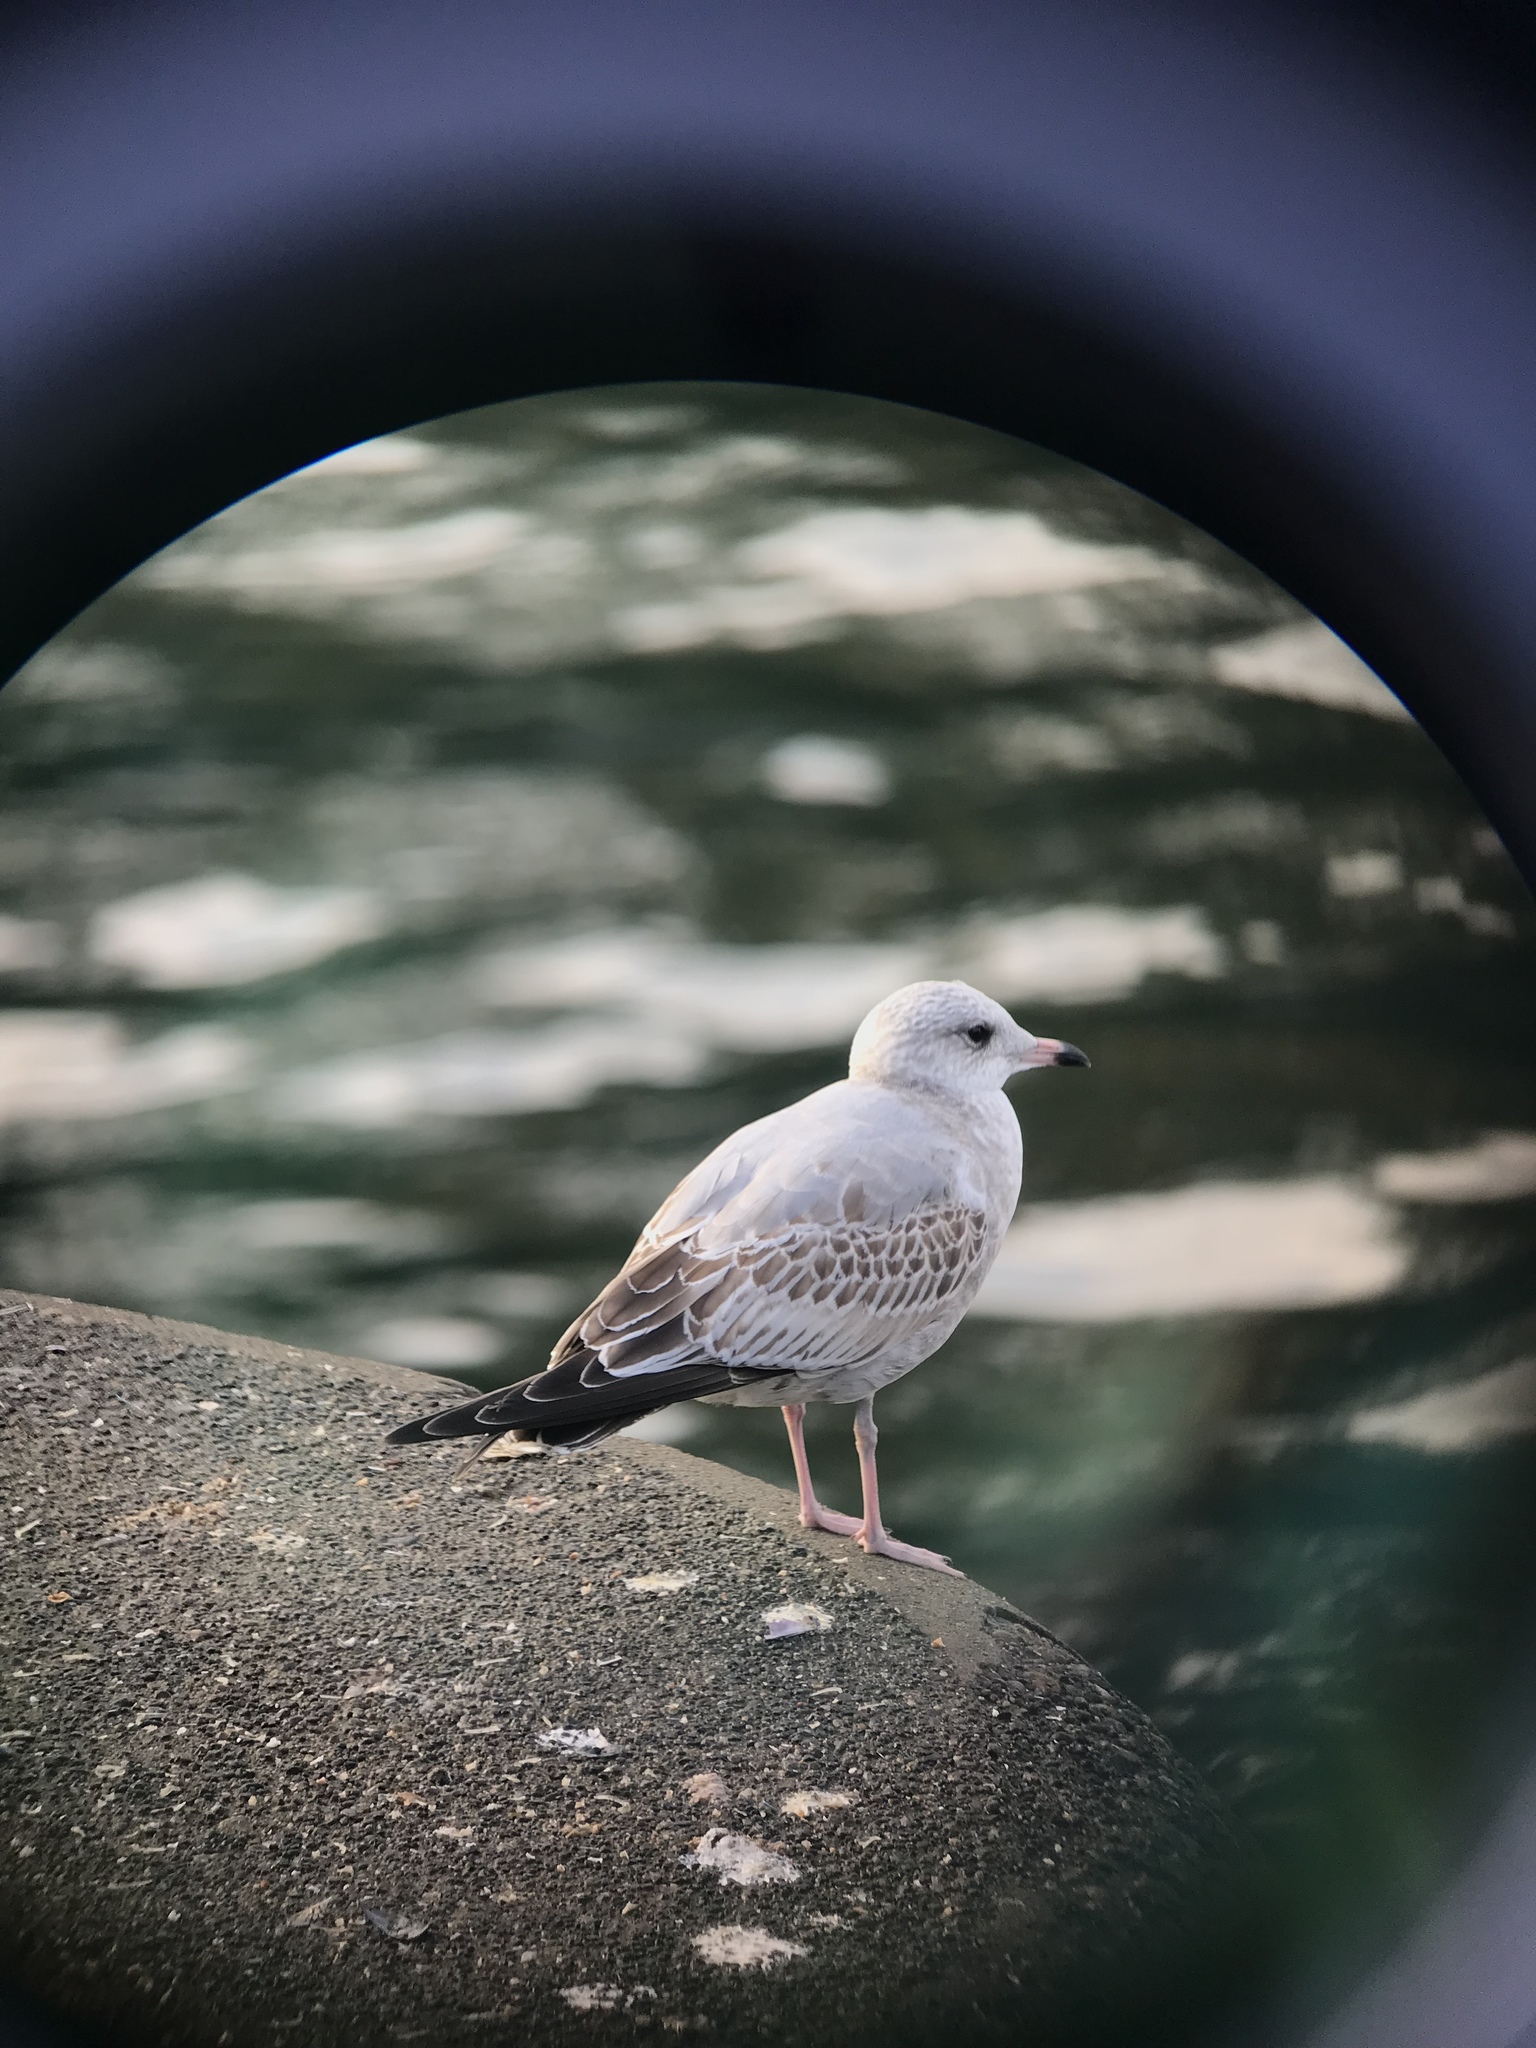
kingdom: Animalia
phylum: Chordata
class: Aves
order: Charadriiformes
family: Laridae
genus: Larus
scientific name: Larus brachyrhynchus
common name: Short-billed gull
